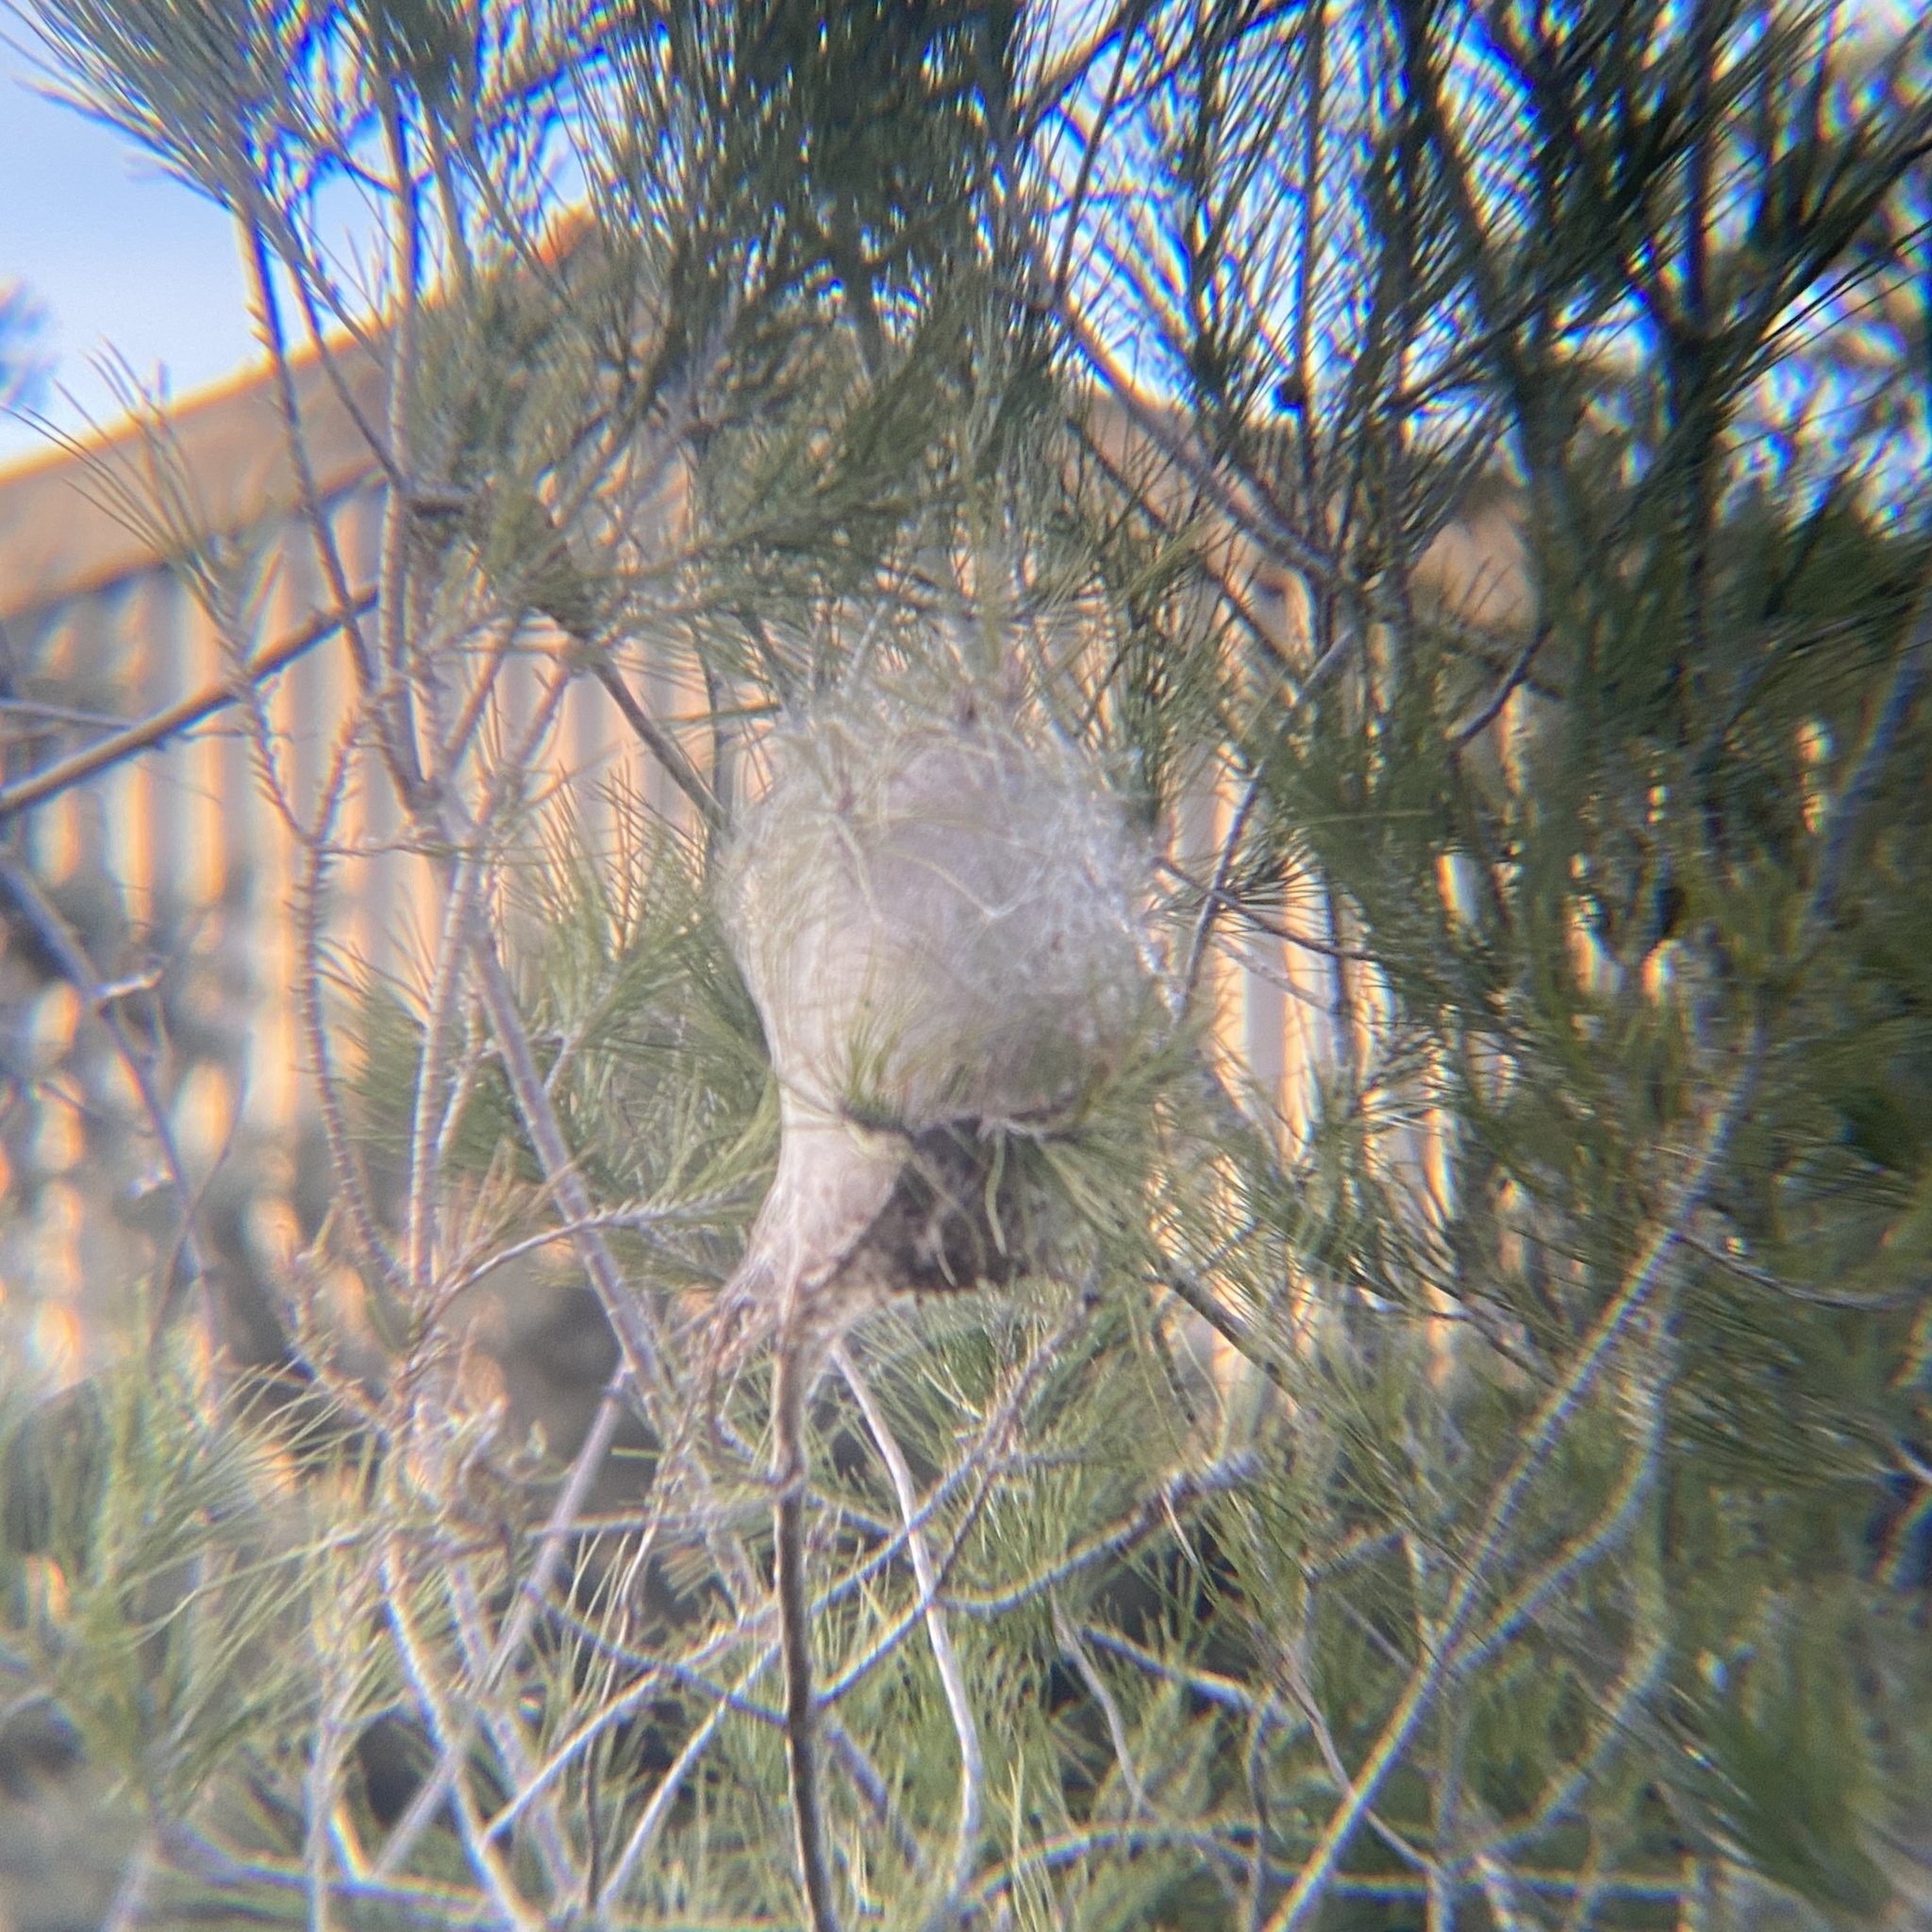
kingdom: Animalia
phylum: Arthropoda
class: Insecta
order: Lepidoptera
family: Notodontidae
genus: Thaumetopoea
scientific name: Thaumetopoea pityocampa
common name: Pine processionary
